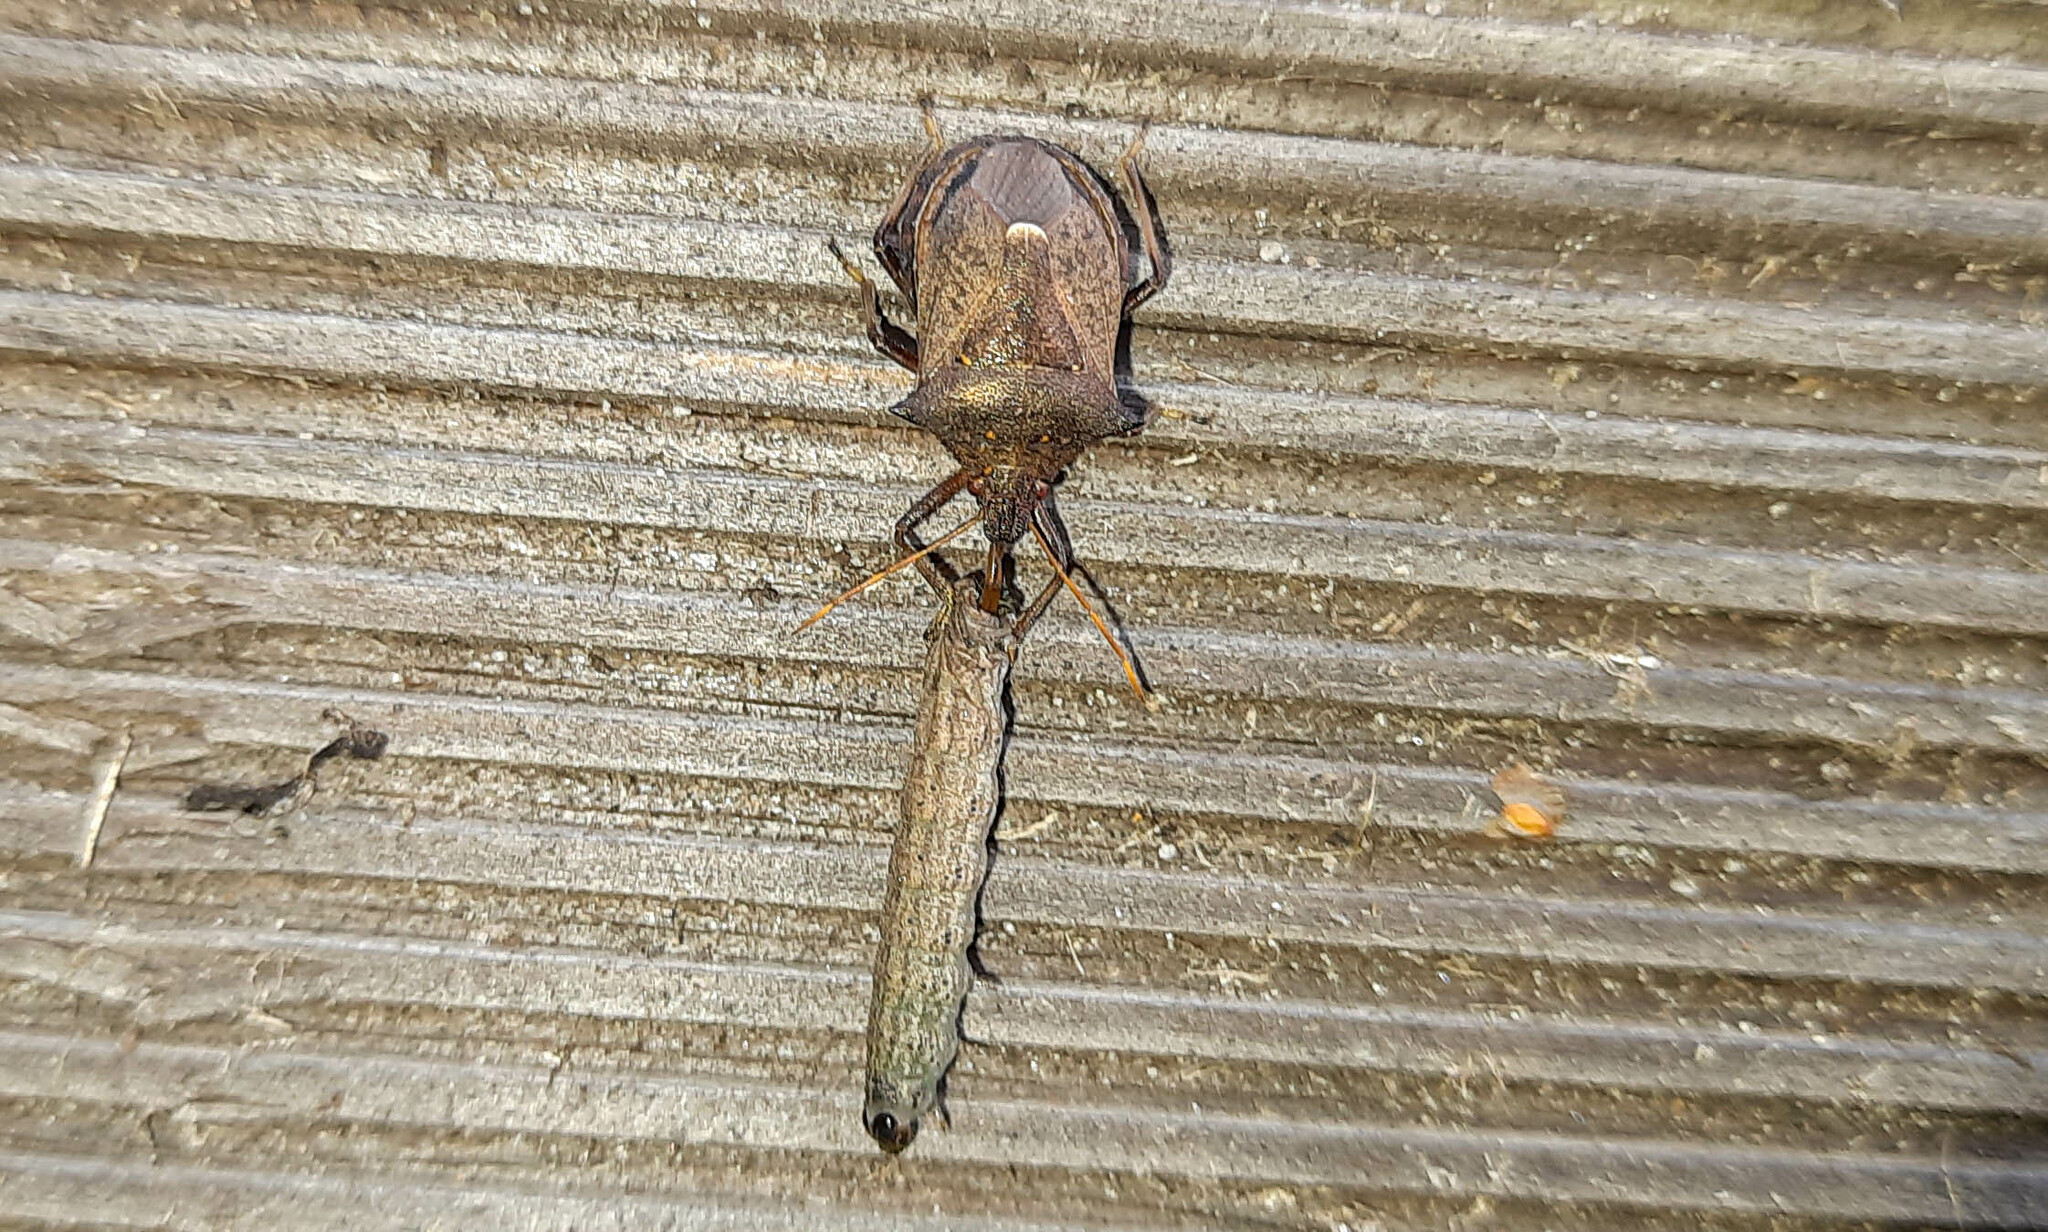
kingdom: Animalia
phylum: Arthropoda
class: Insecta
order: Hemiptera
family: Pentatomidae
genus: Picromerus
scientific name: Picromerus bidens
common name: Spiked shieldbug
